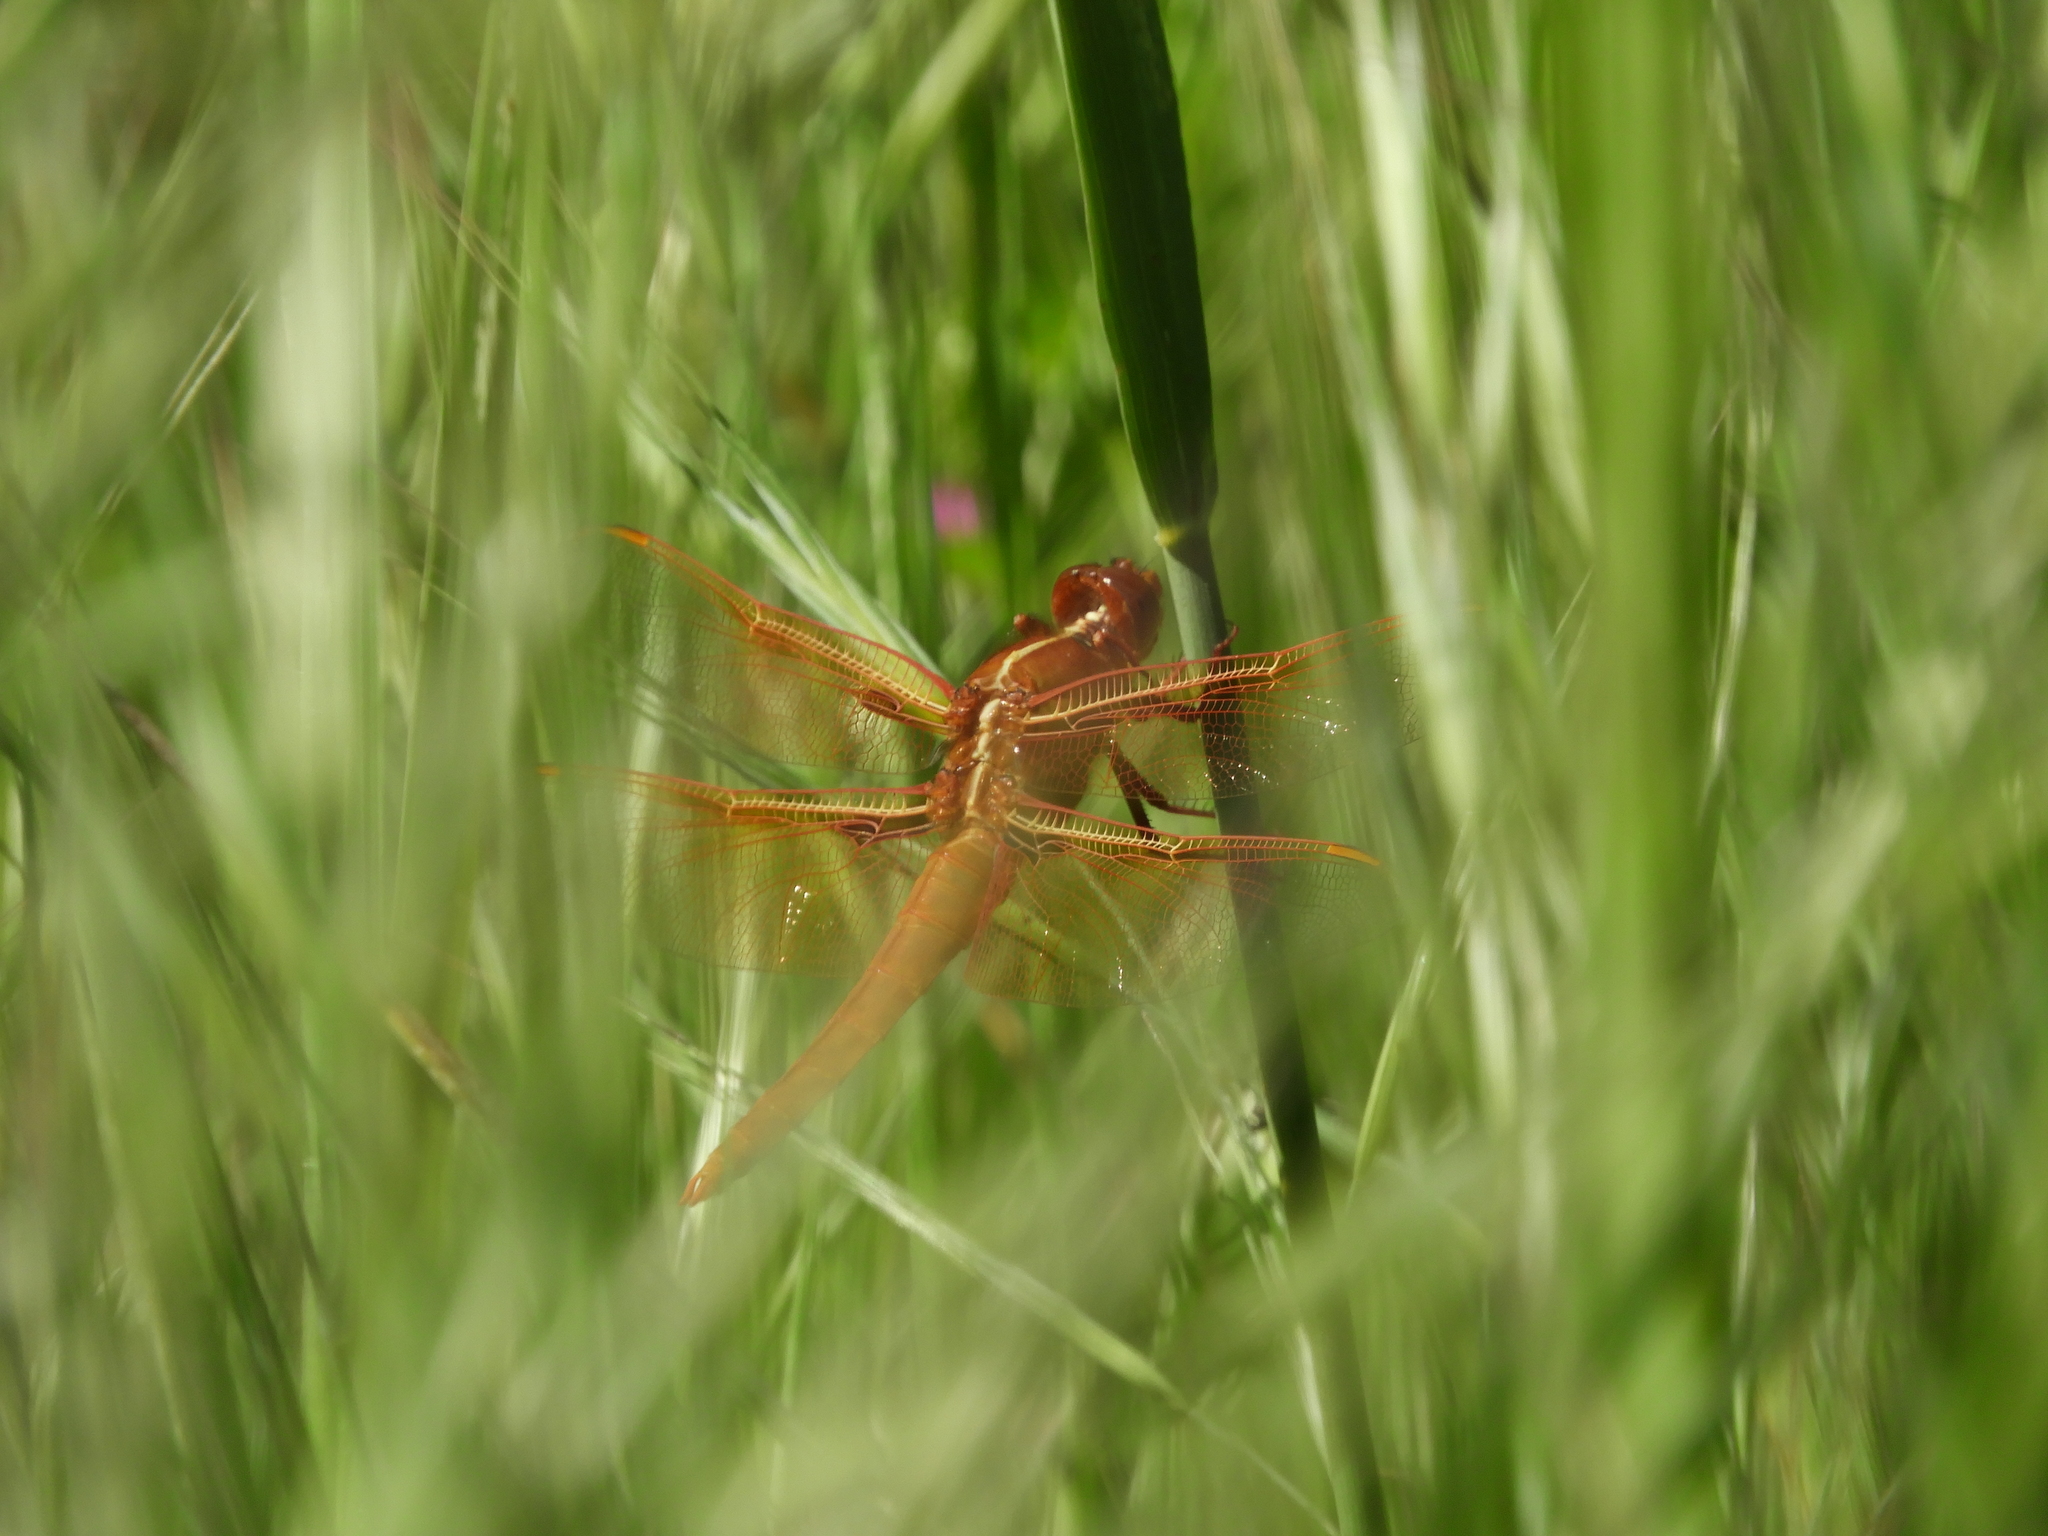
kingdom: Animalia
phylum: Arthropoda
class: Insecta
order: Odonata
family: Libellulidae
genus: Libellula
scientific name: Libellula saturata
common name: Flame skimmer
